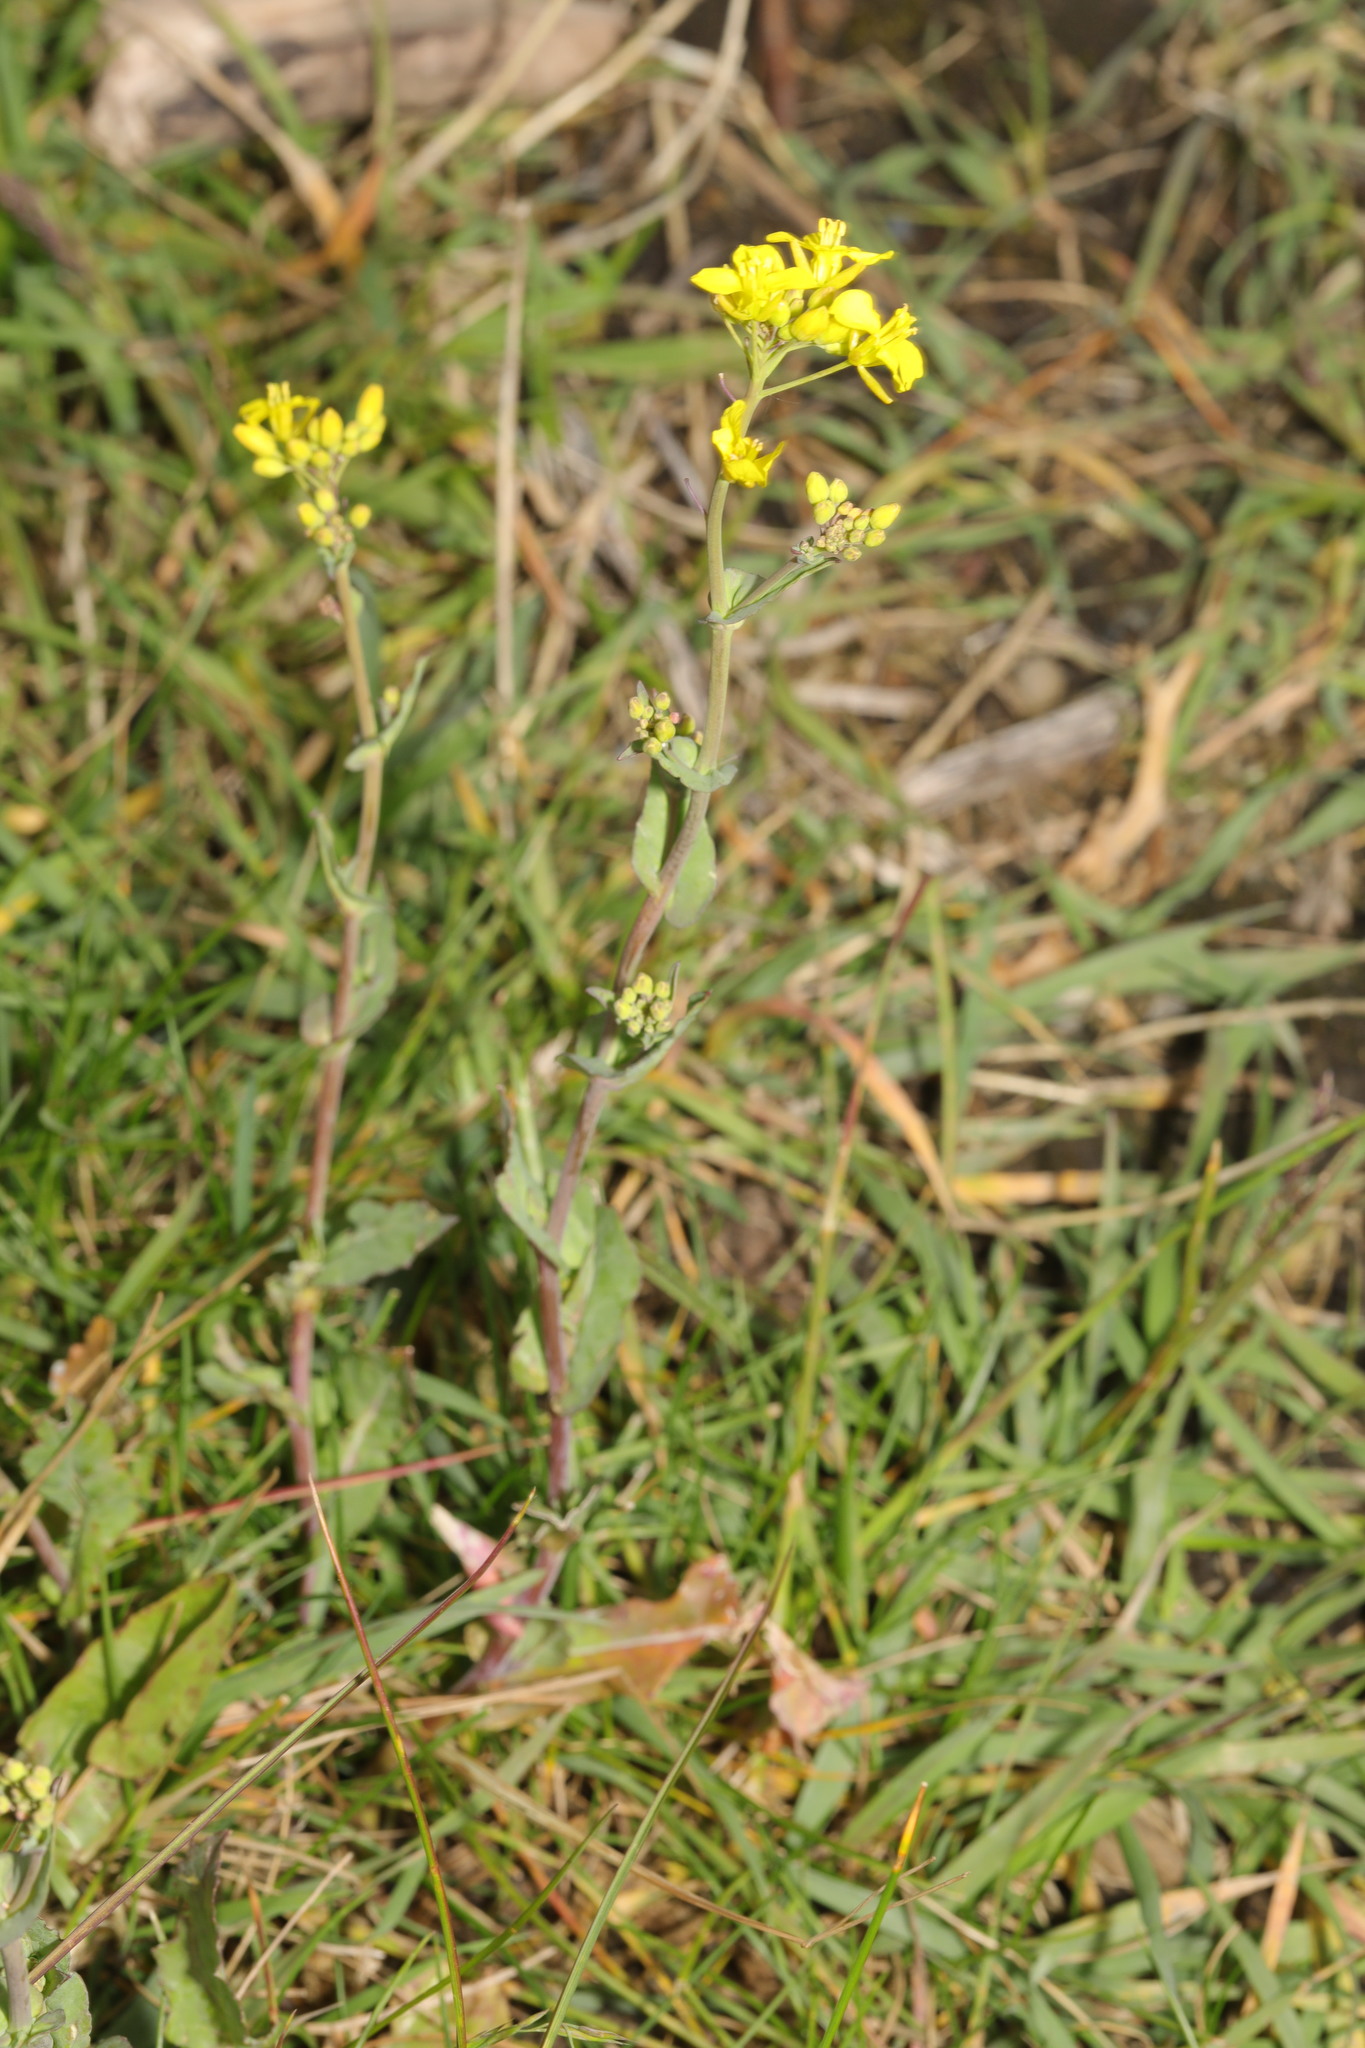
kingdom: Plantae
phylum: Tracheophyta
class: Magnoliopsida
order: Brassicales
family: Brassicaceae
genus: Brassica
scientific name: Brassica napus
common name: Rape
